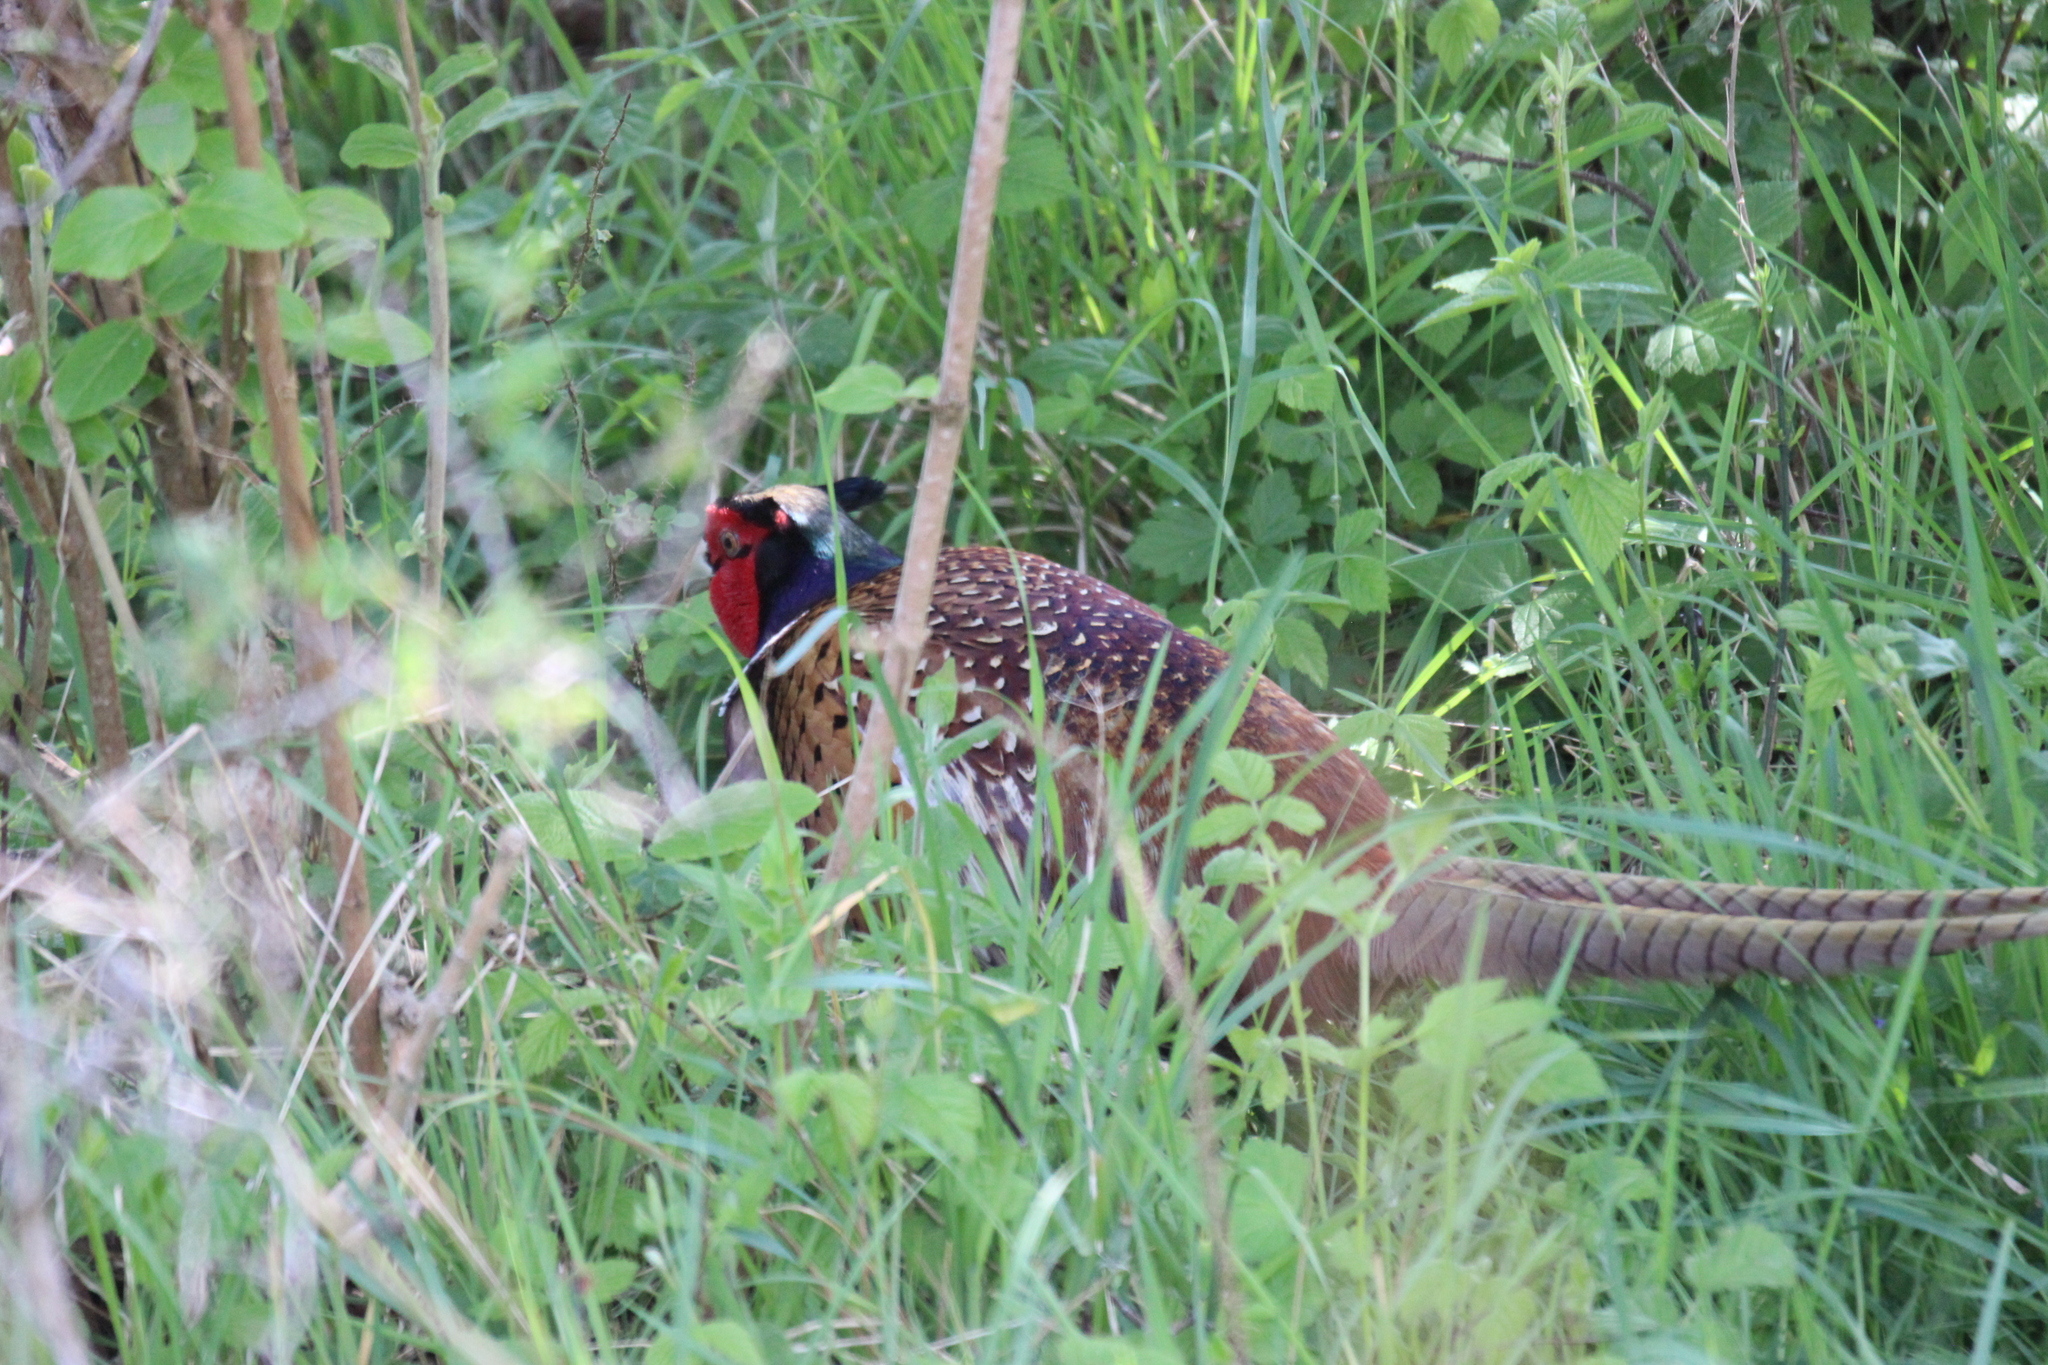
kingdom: Animalia
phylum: Chordata
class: Aves
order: Galliformes
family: Phasianidae
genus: Phasianus
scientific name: Phasianus colchicus
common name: Common pheasant
